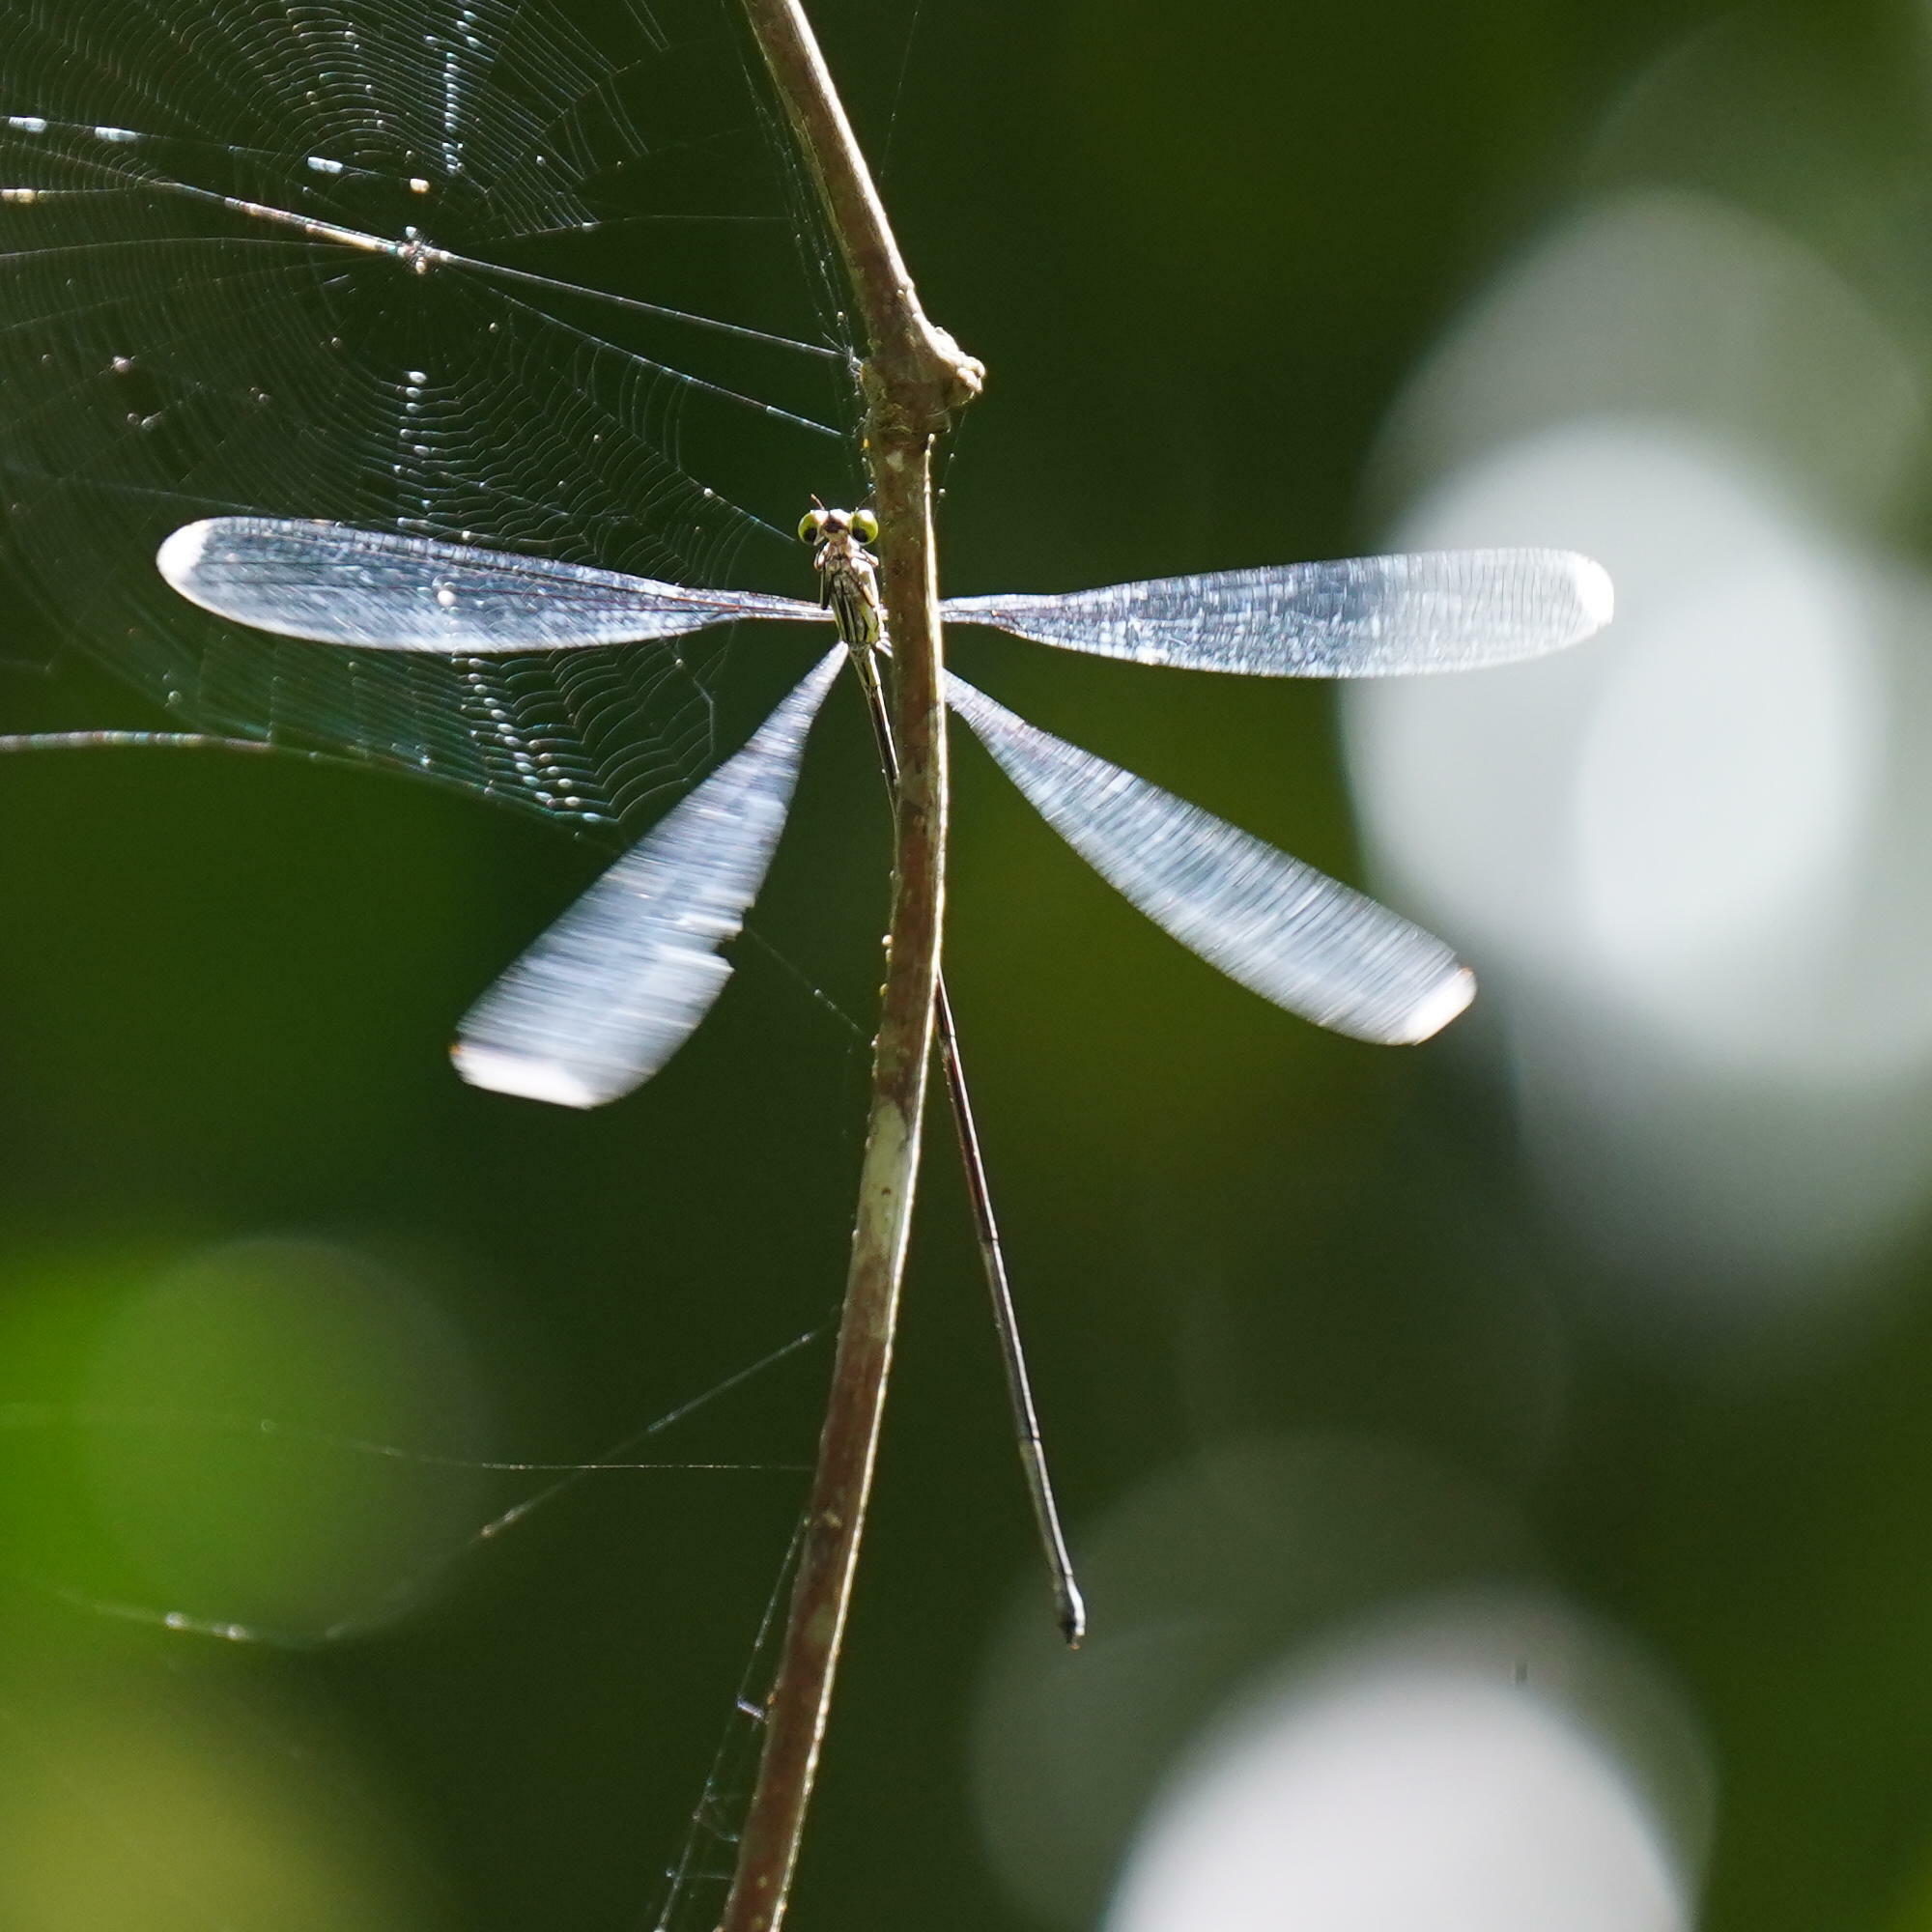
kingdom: Animalia
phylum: Arthropoda
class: Insecta
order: Odonata
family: Coenagrionidae
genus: Mecistogaster
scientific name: Mecistogaster modesta
